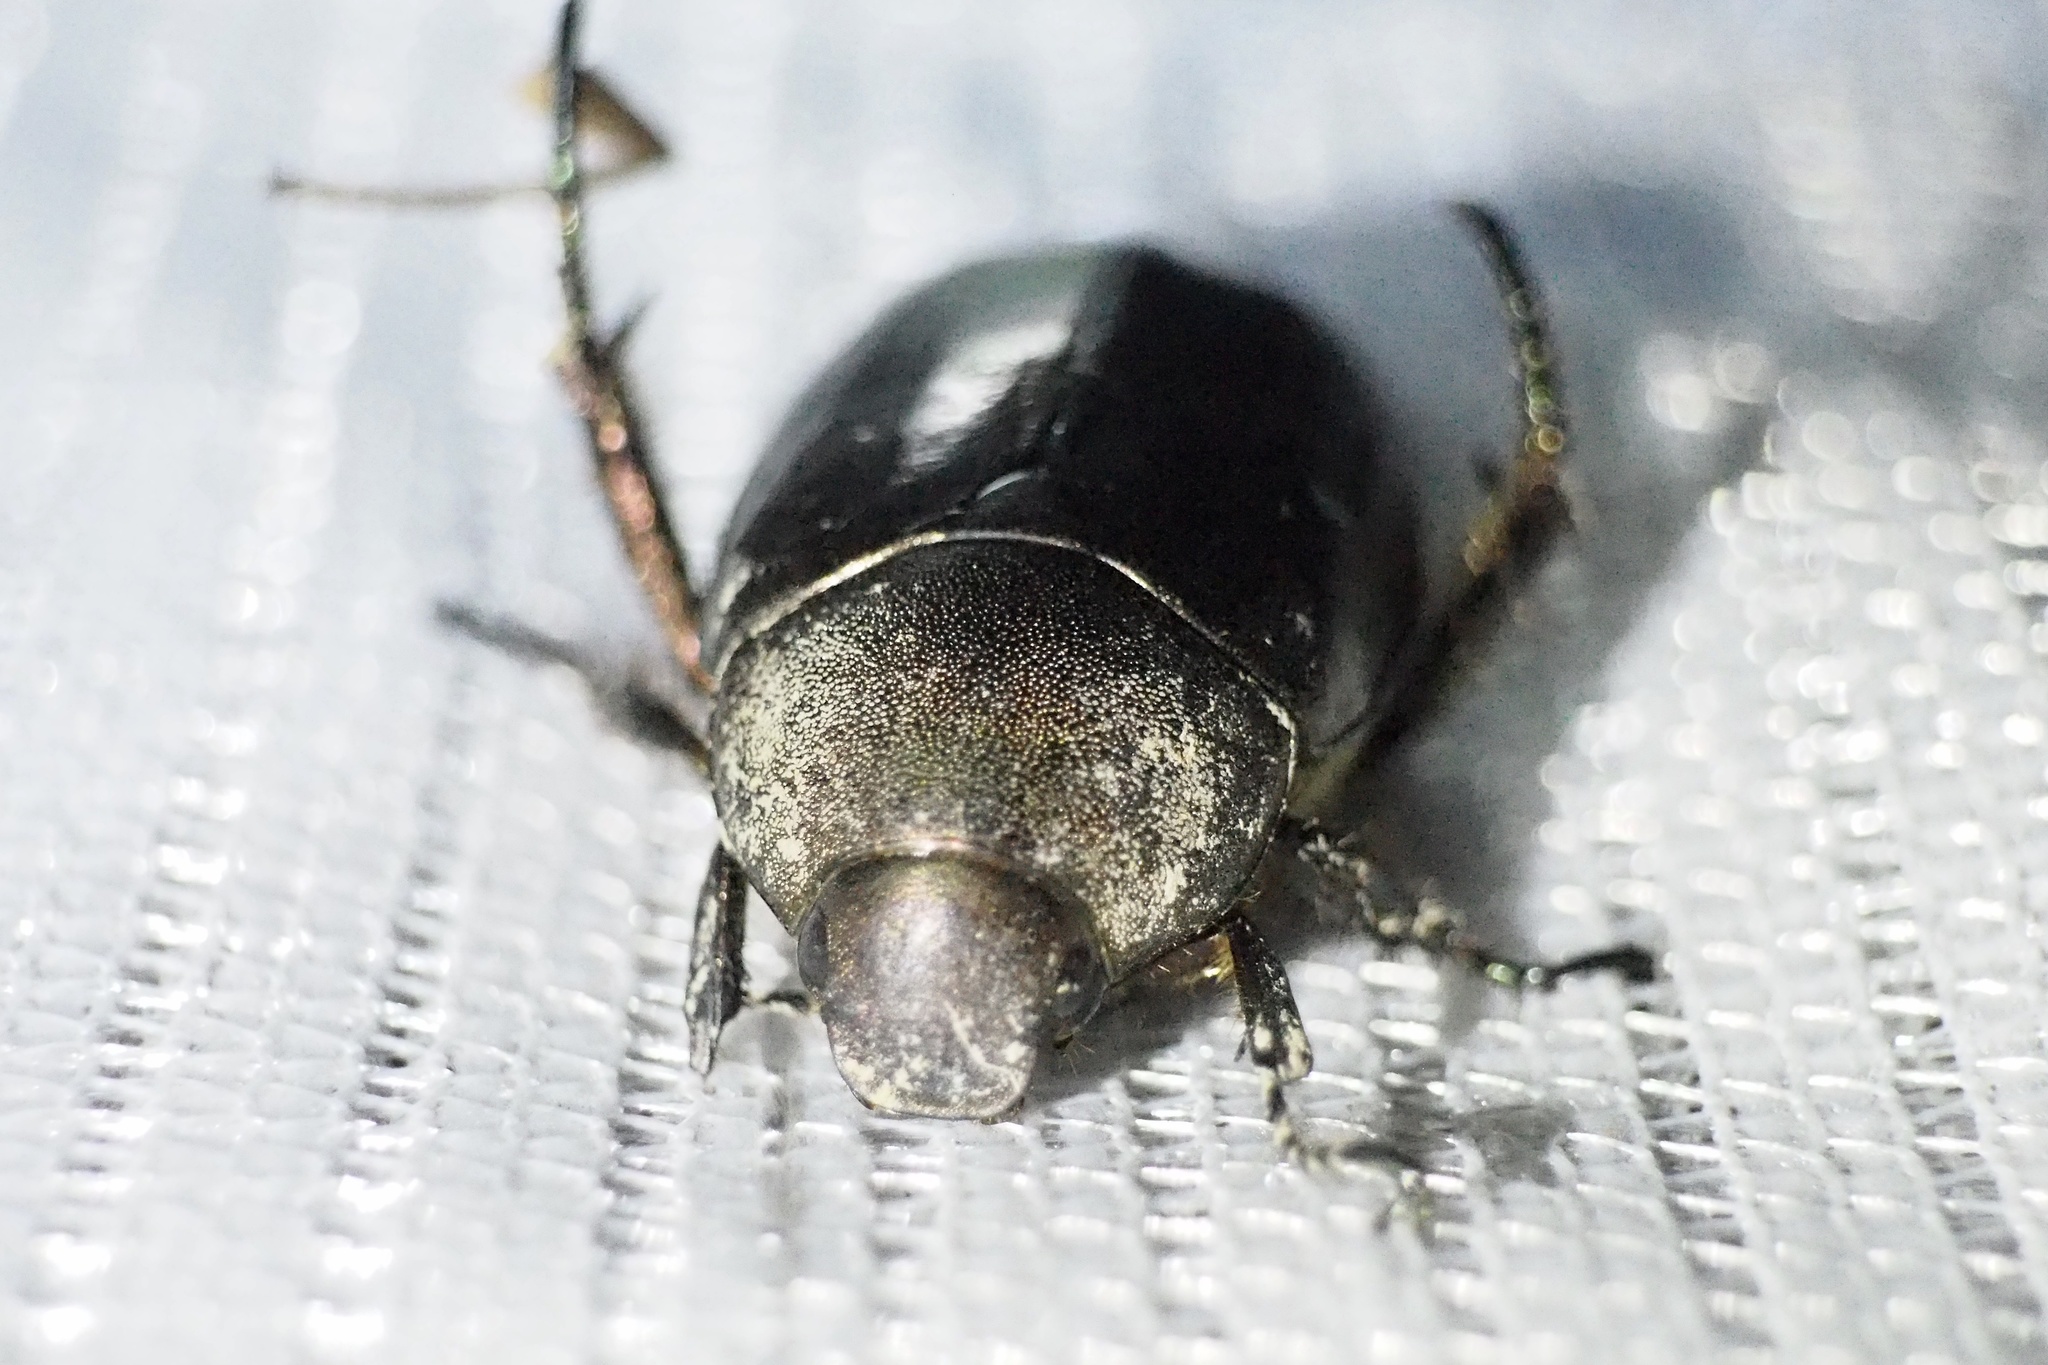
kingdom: Animalia
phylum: Arthropoda
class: Insecta
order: Coleoptera
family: Scarabaeidae
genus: Anomala
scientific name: Anomala cuprea
